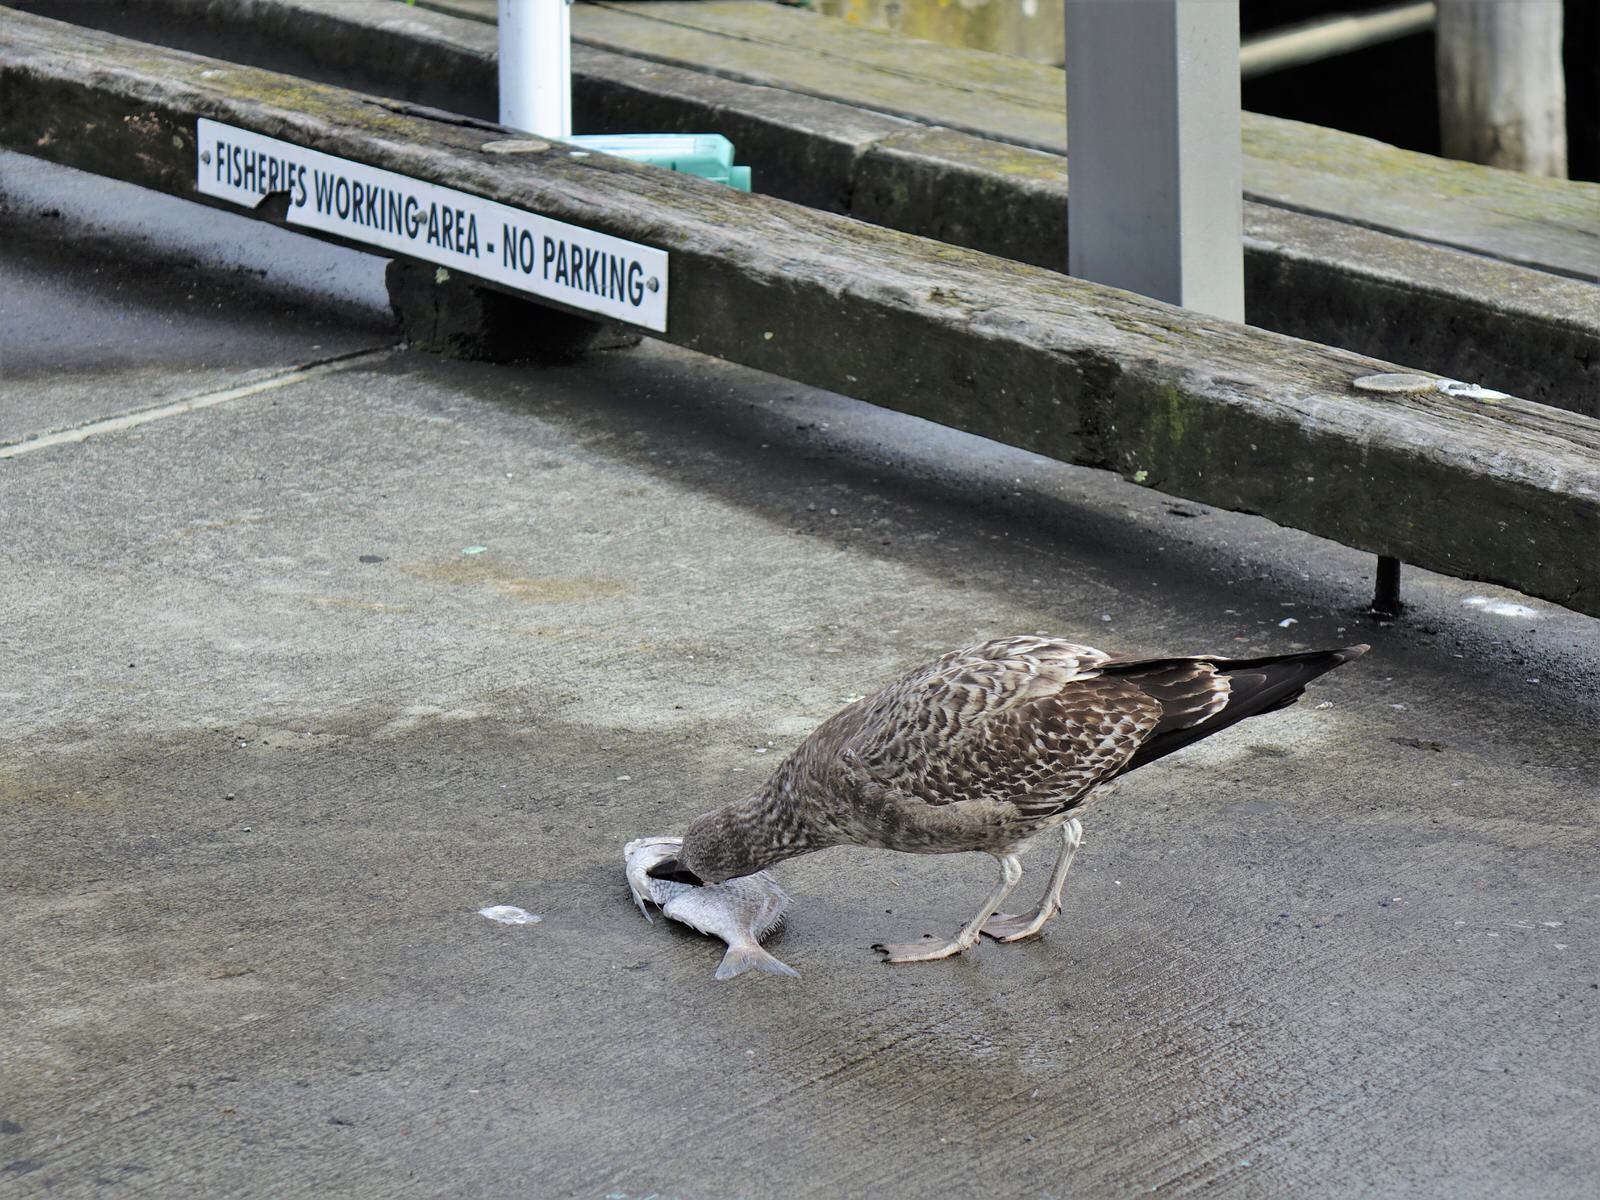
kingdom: Animalia
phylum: Chordata
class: Aves
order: Charadriiformes
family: Laridae
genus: Larus
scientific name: Larus dominicanus
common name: Kelp gull
